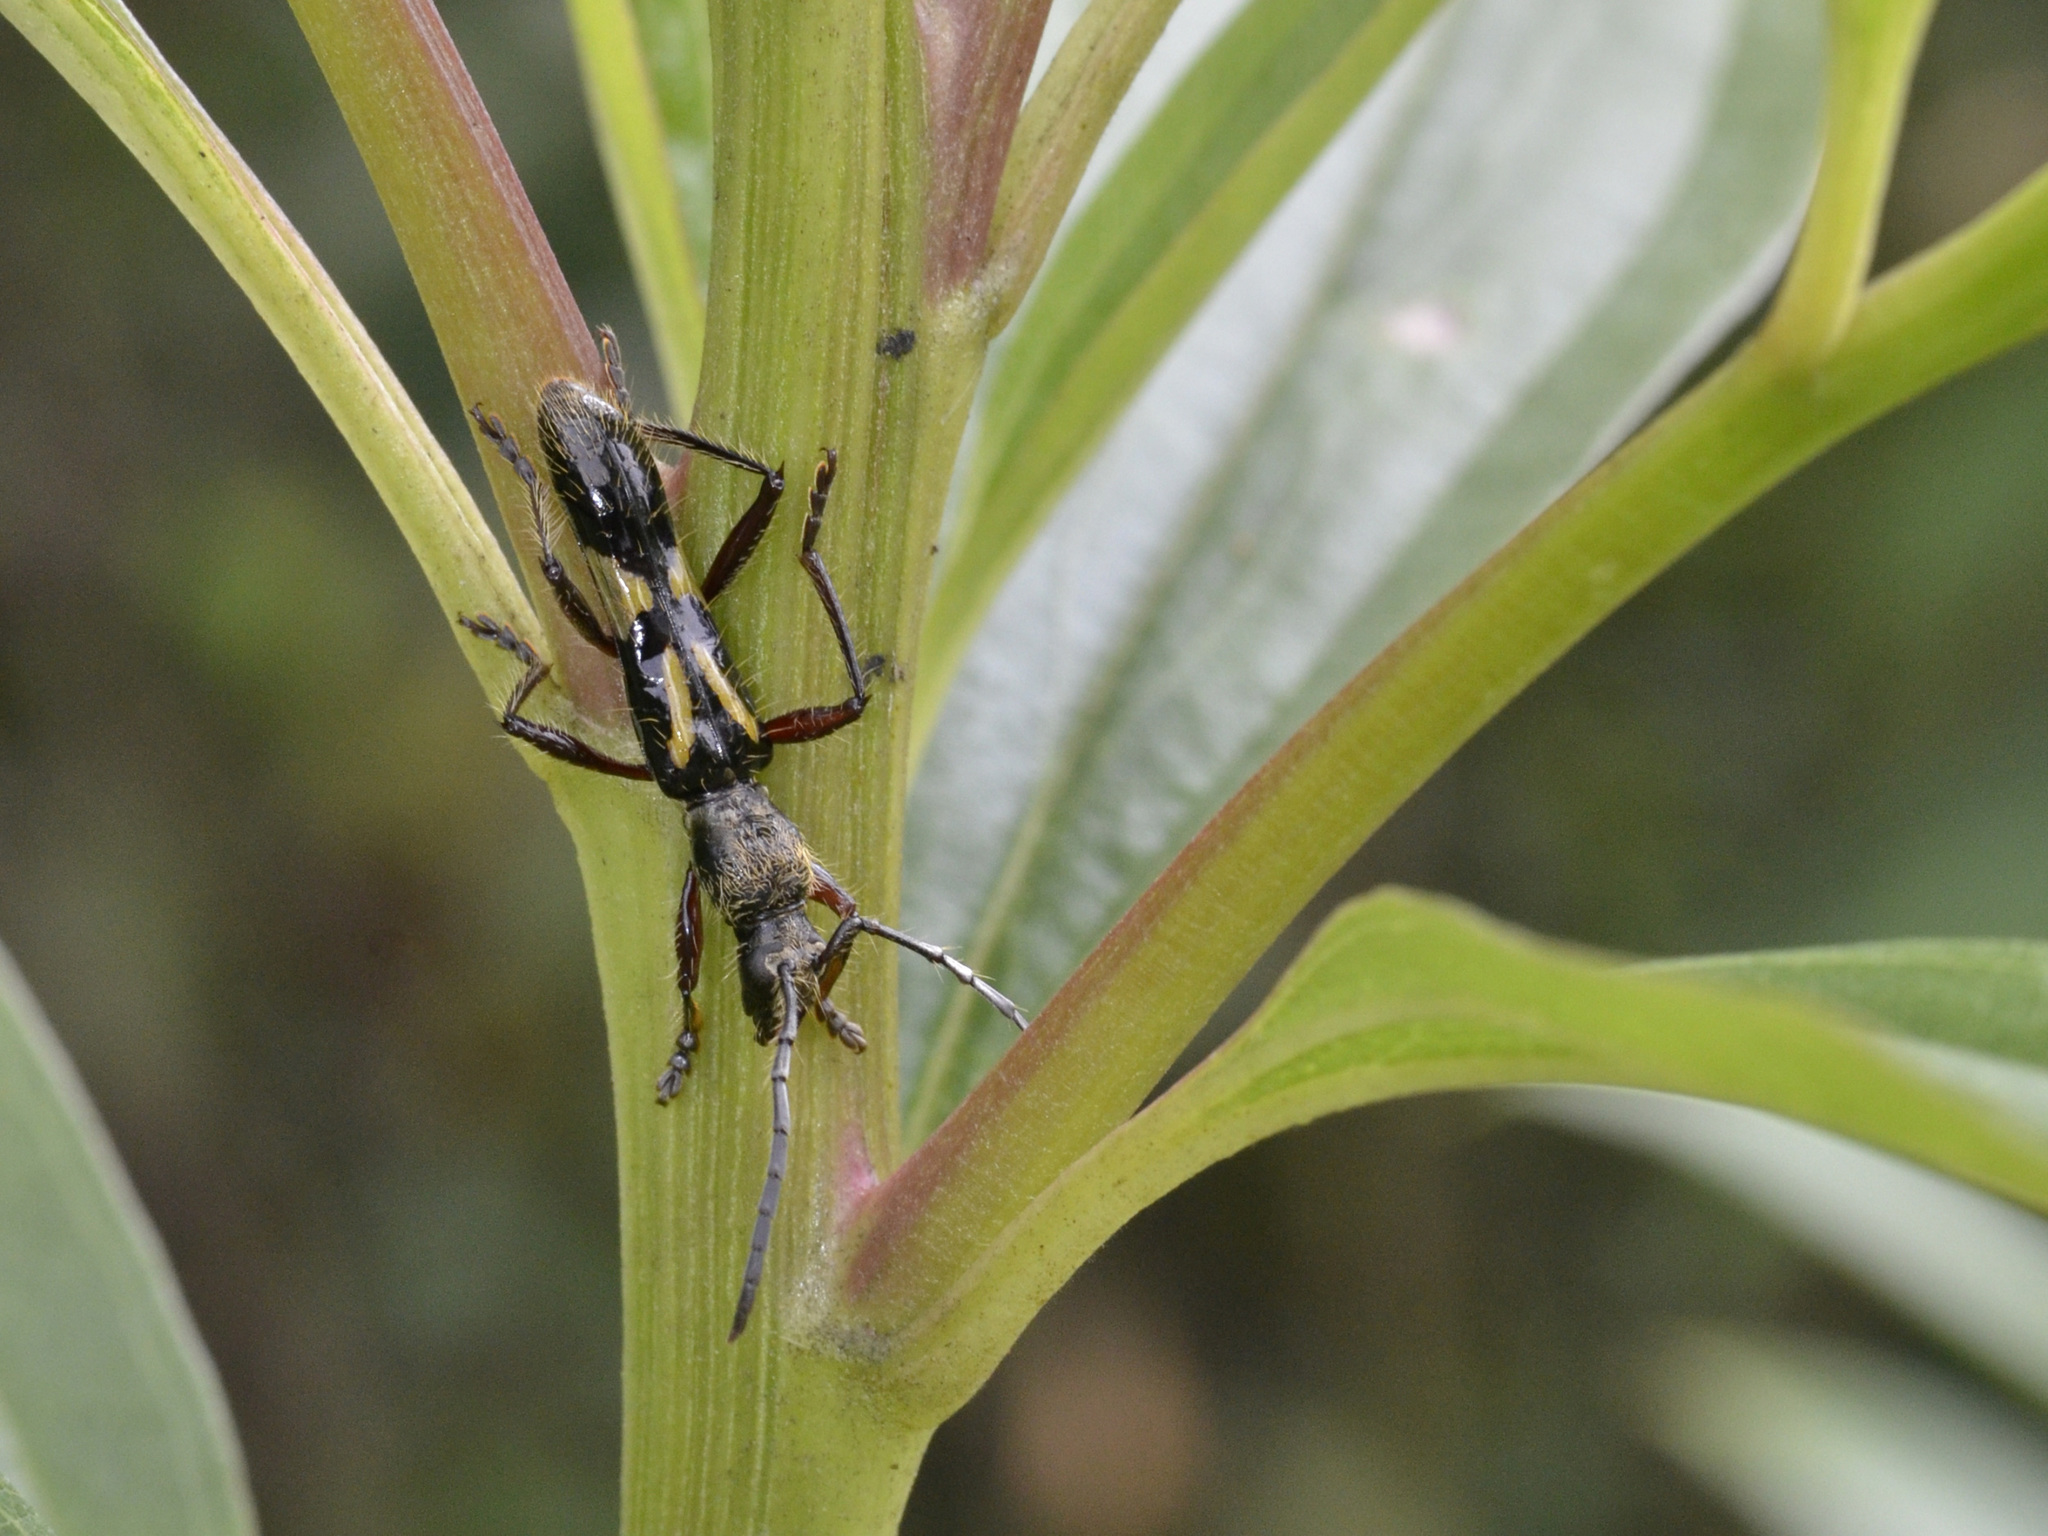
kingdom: Animalia
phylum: Arthropoda
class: Insecta
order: Coleoptera
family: Cerambycidae
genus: Stenygra
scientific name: Stenygra holmgreni
